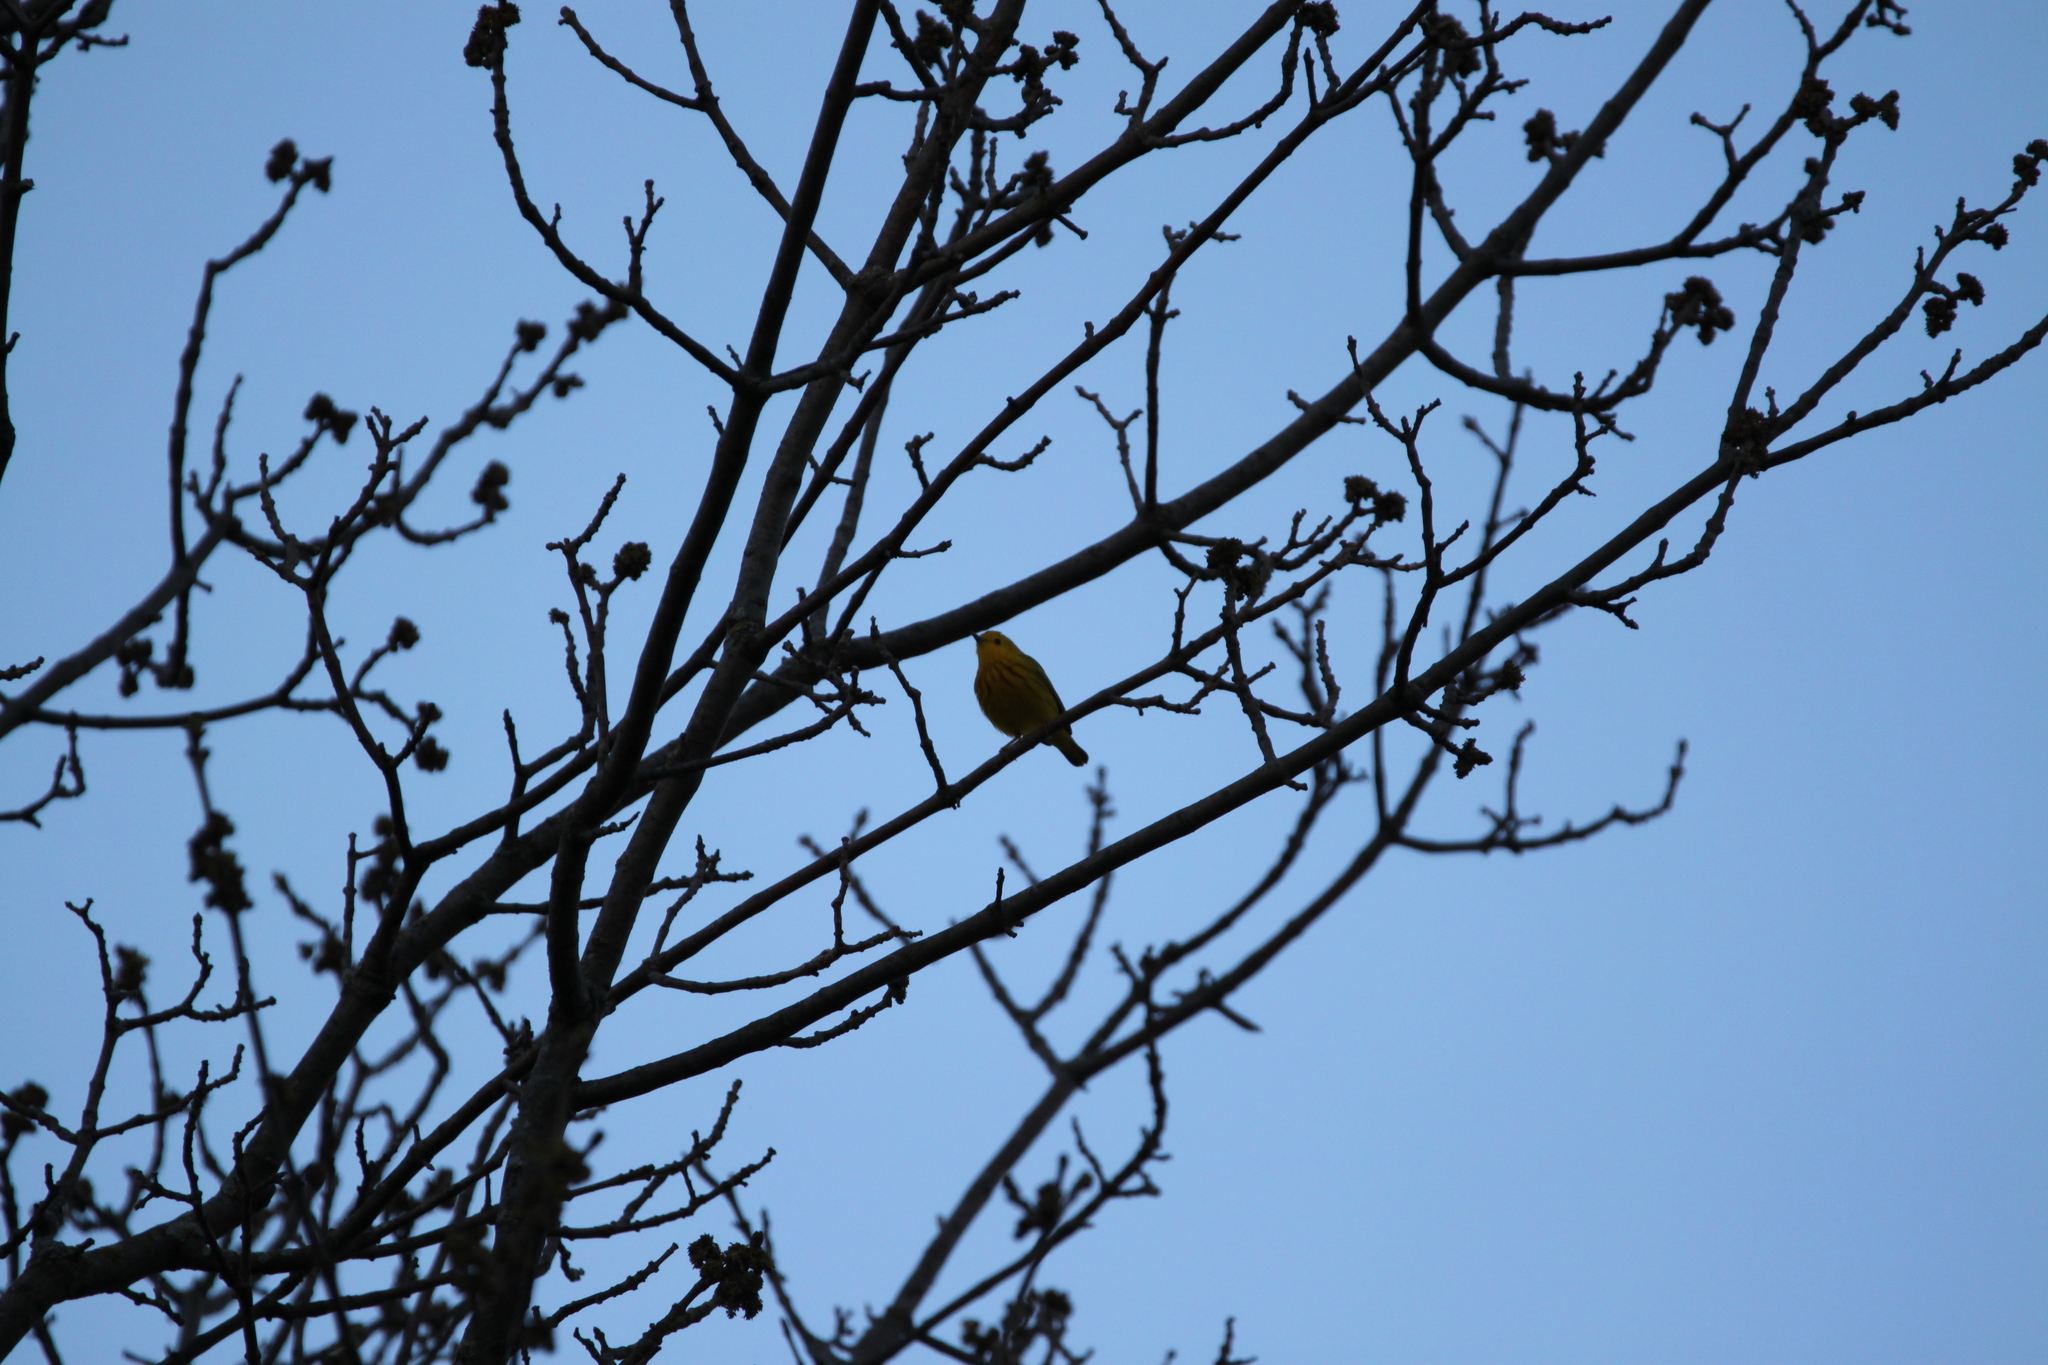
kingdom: Animalia
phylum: Chordata
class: Aves
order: Passeriformes
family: Parulidae
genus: Setophaga
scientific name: Setophaga petechia
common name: Yellow warbler
